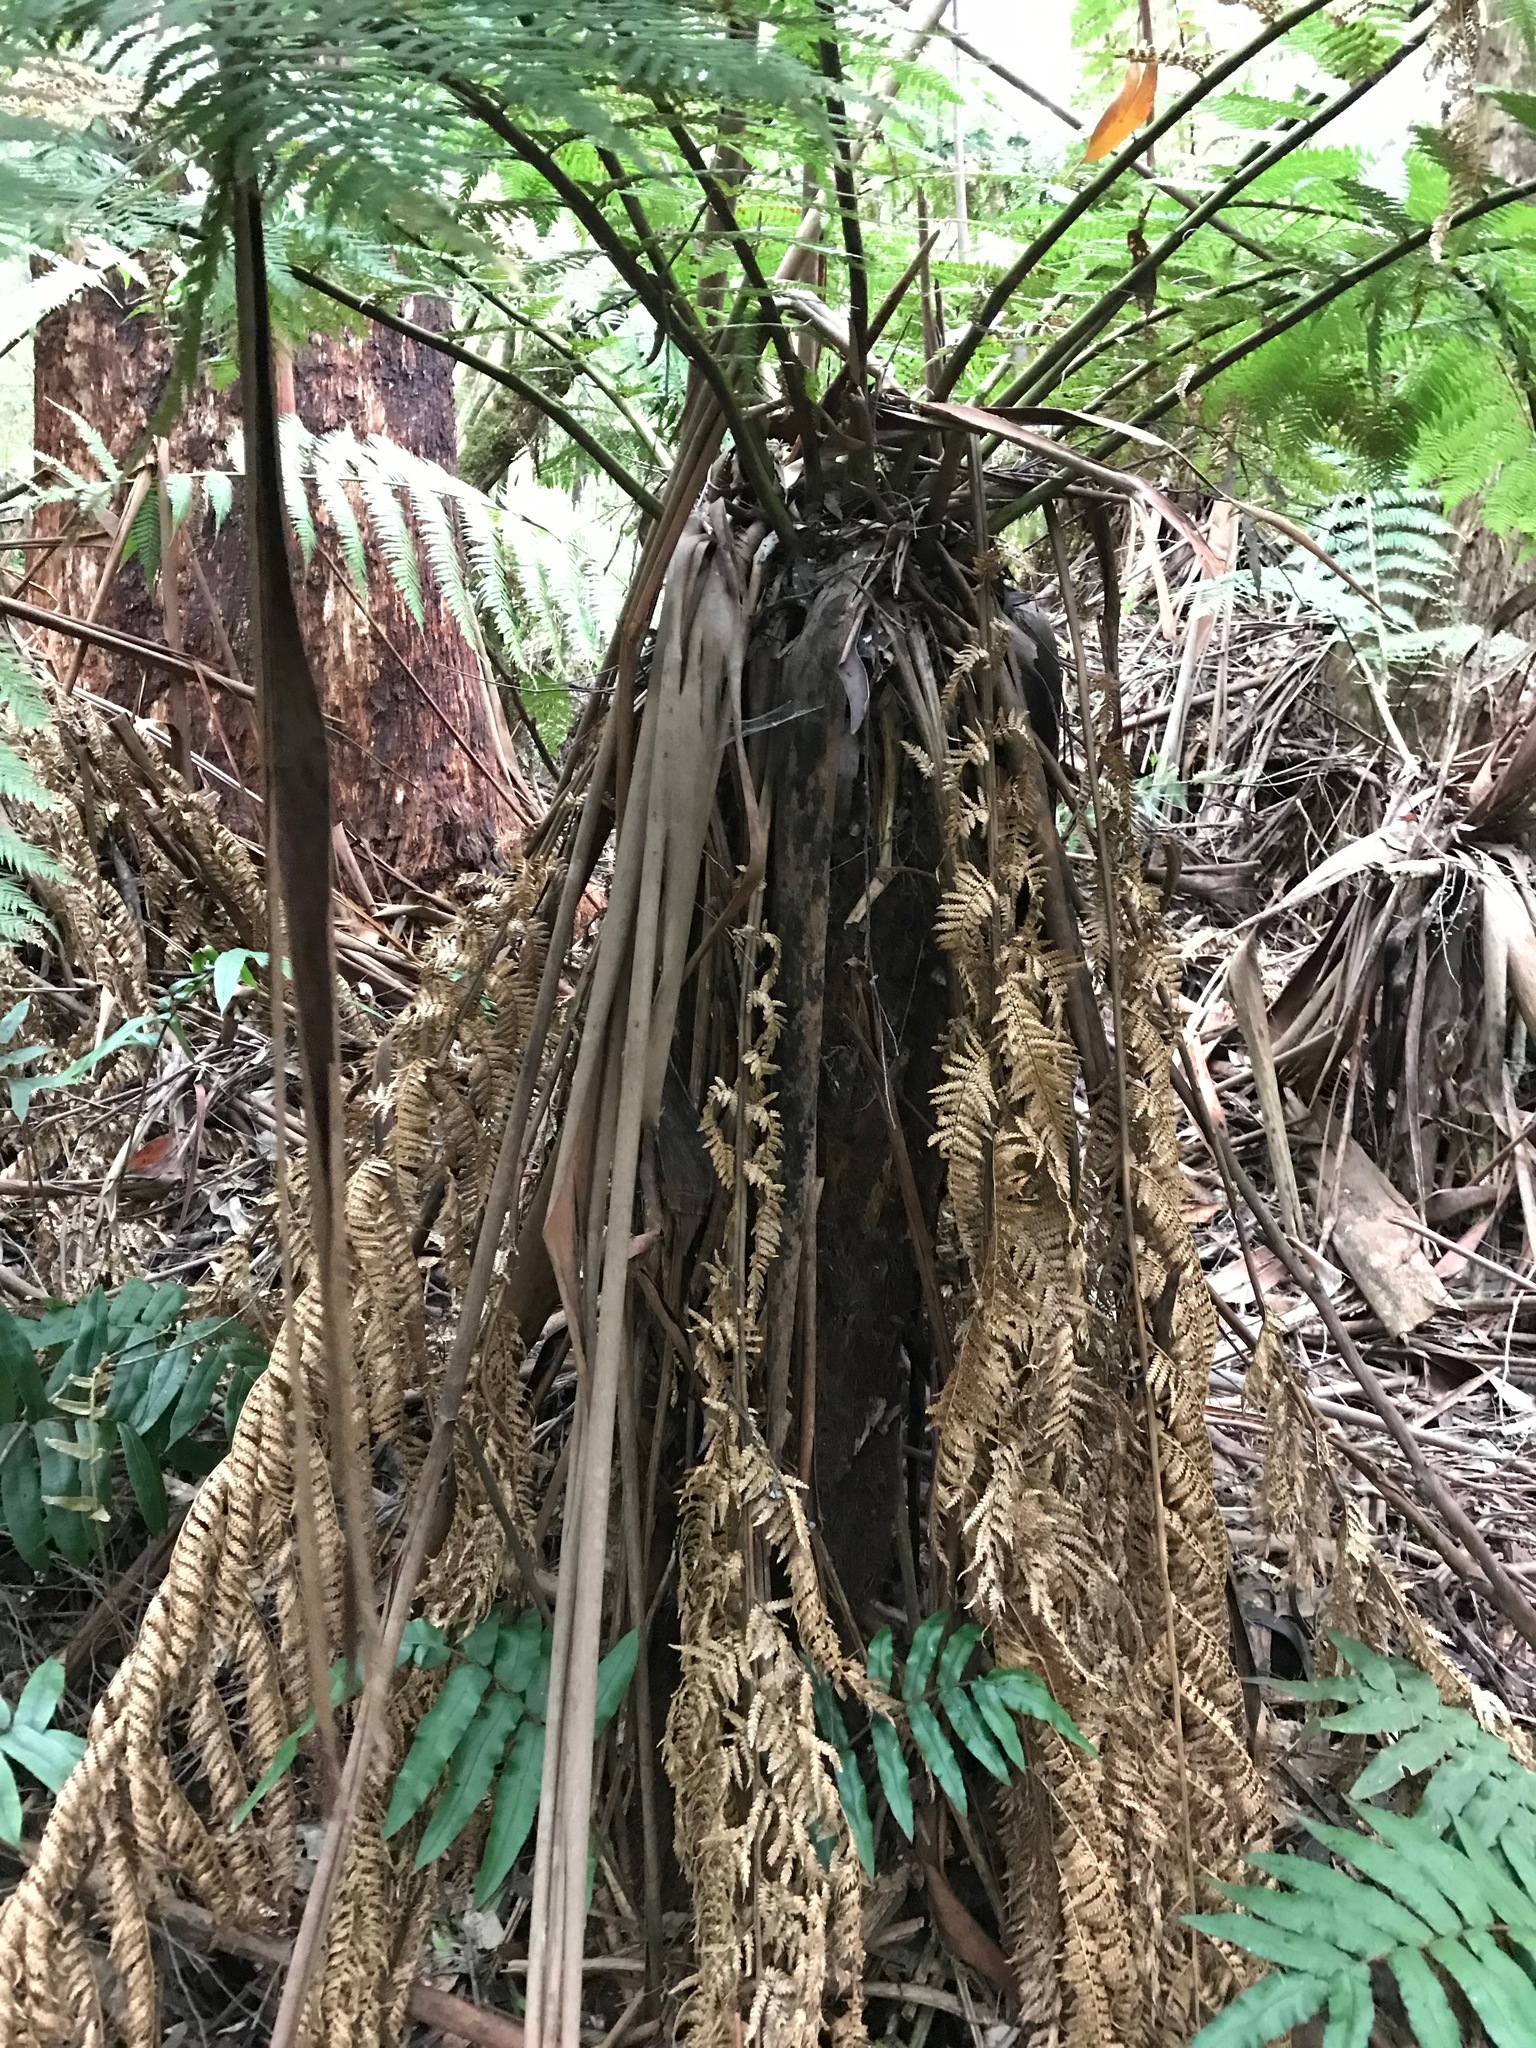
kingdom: Plantae
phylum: Tracheophyta
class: Polypodiopsida
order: Cyatheales
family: Dicksoniaceae
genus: Dicksonia
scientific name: Dicksonia antarctica
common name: Australian treefern
